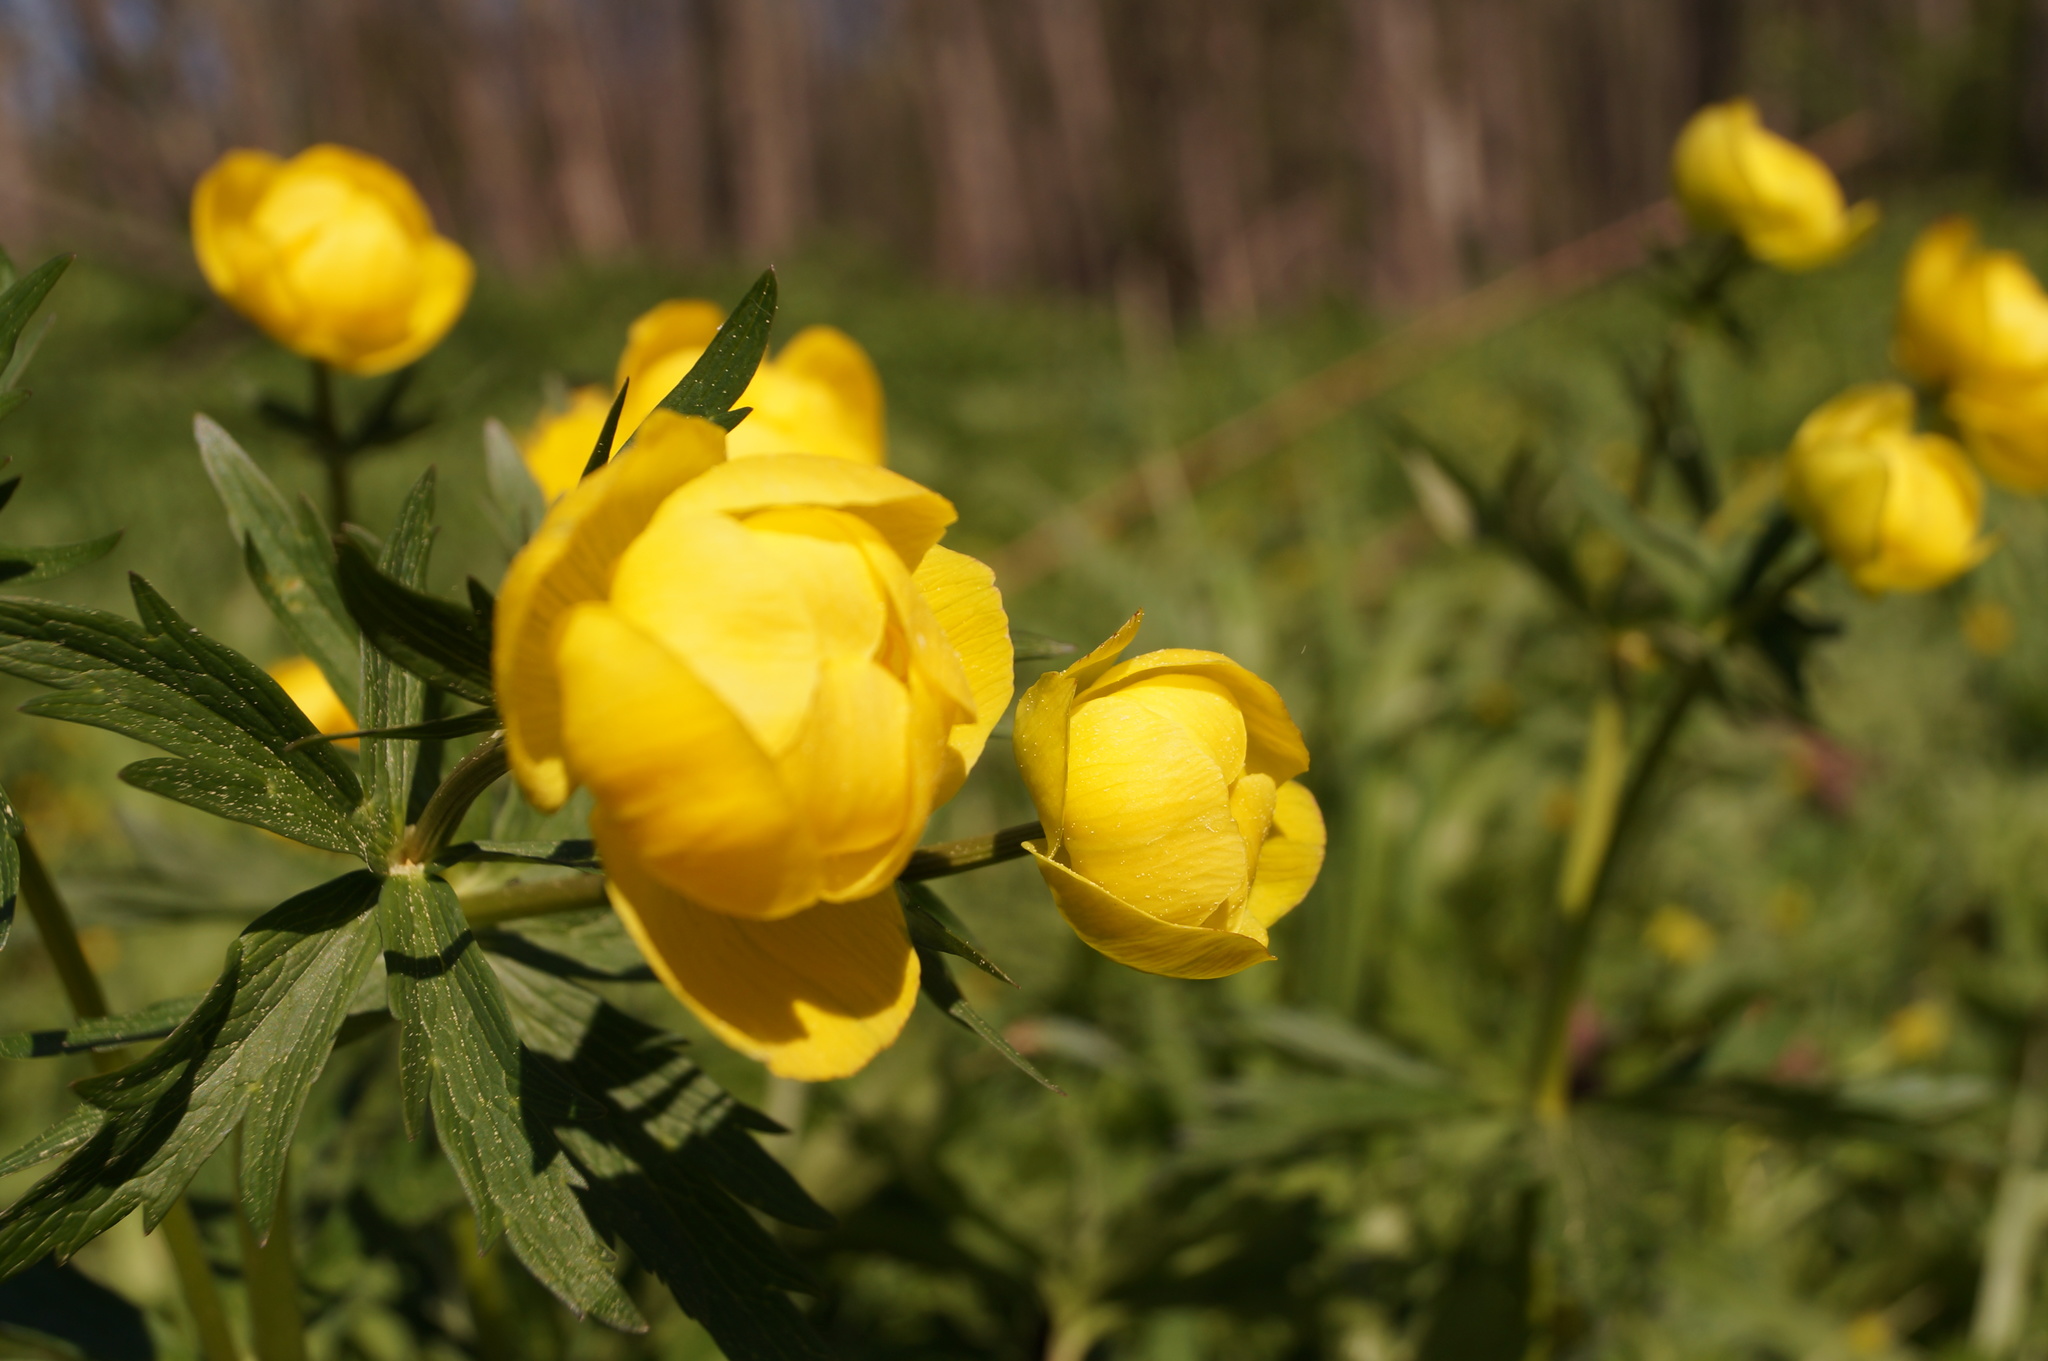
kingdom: Plantae
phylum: Tracheophyta
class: Magnoliopsida
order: Ranunculales
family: Ranunculaceae
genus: Trollius
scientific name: Trollius europaeus
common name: European globeflower
